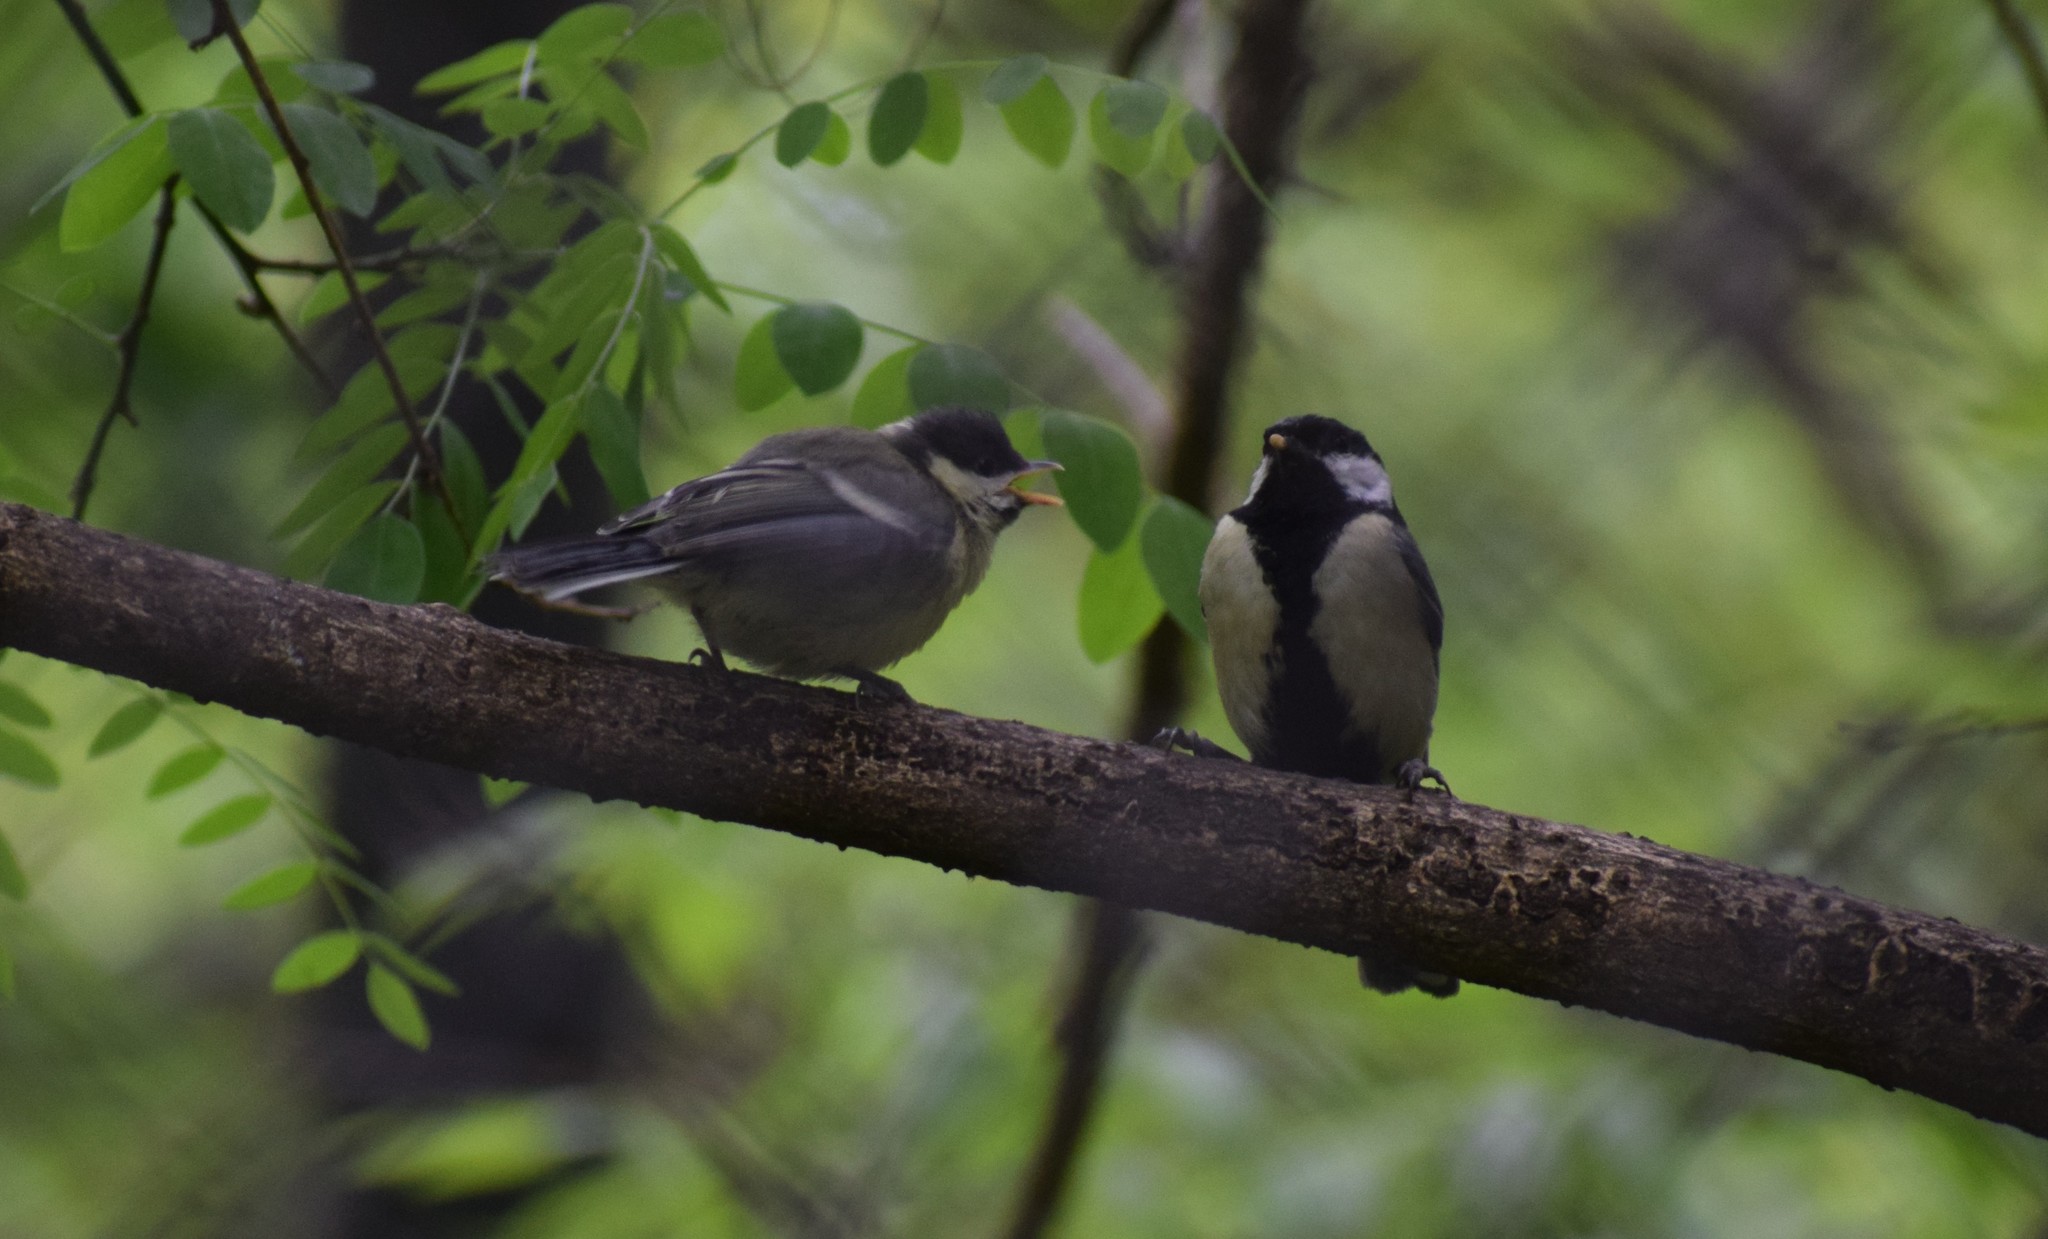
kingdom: Animalia
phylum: Chordata
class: Aves
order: Passeriformes
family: Paridae
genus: Parus
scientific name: Parus major
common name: Great tit
